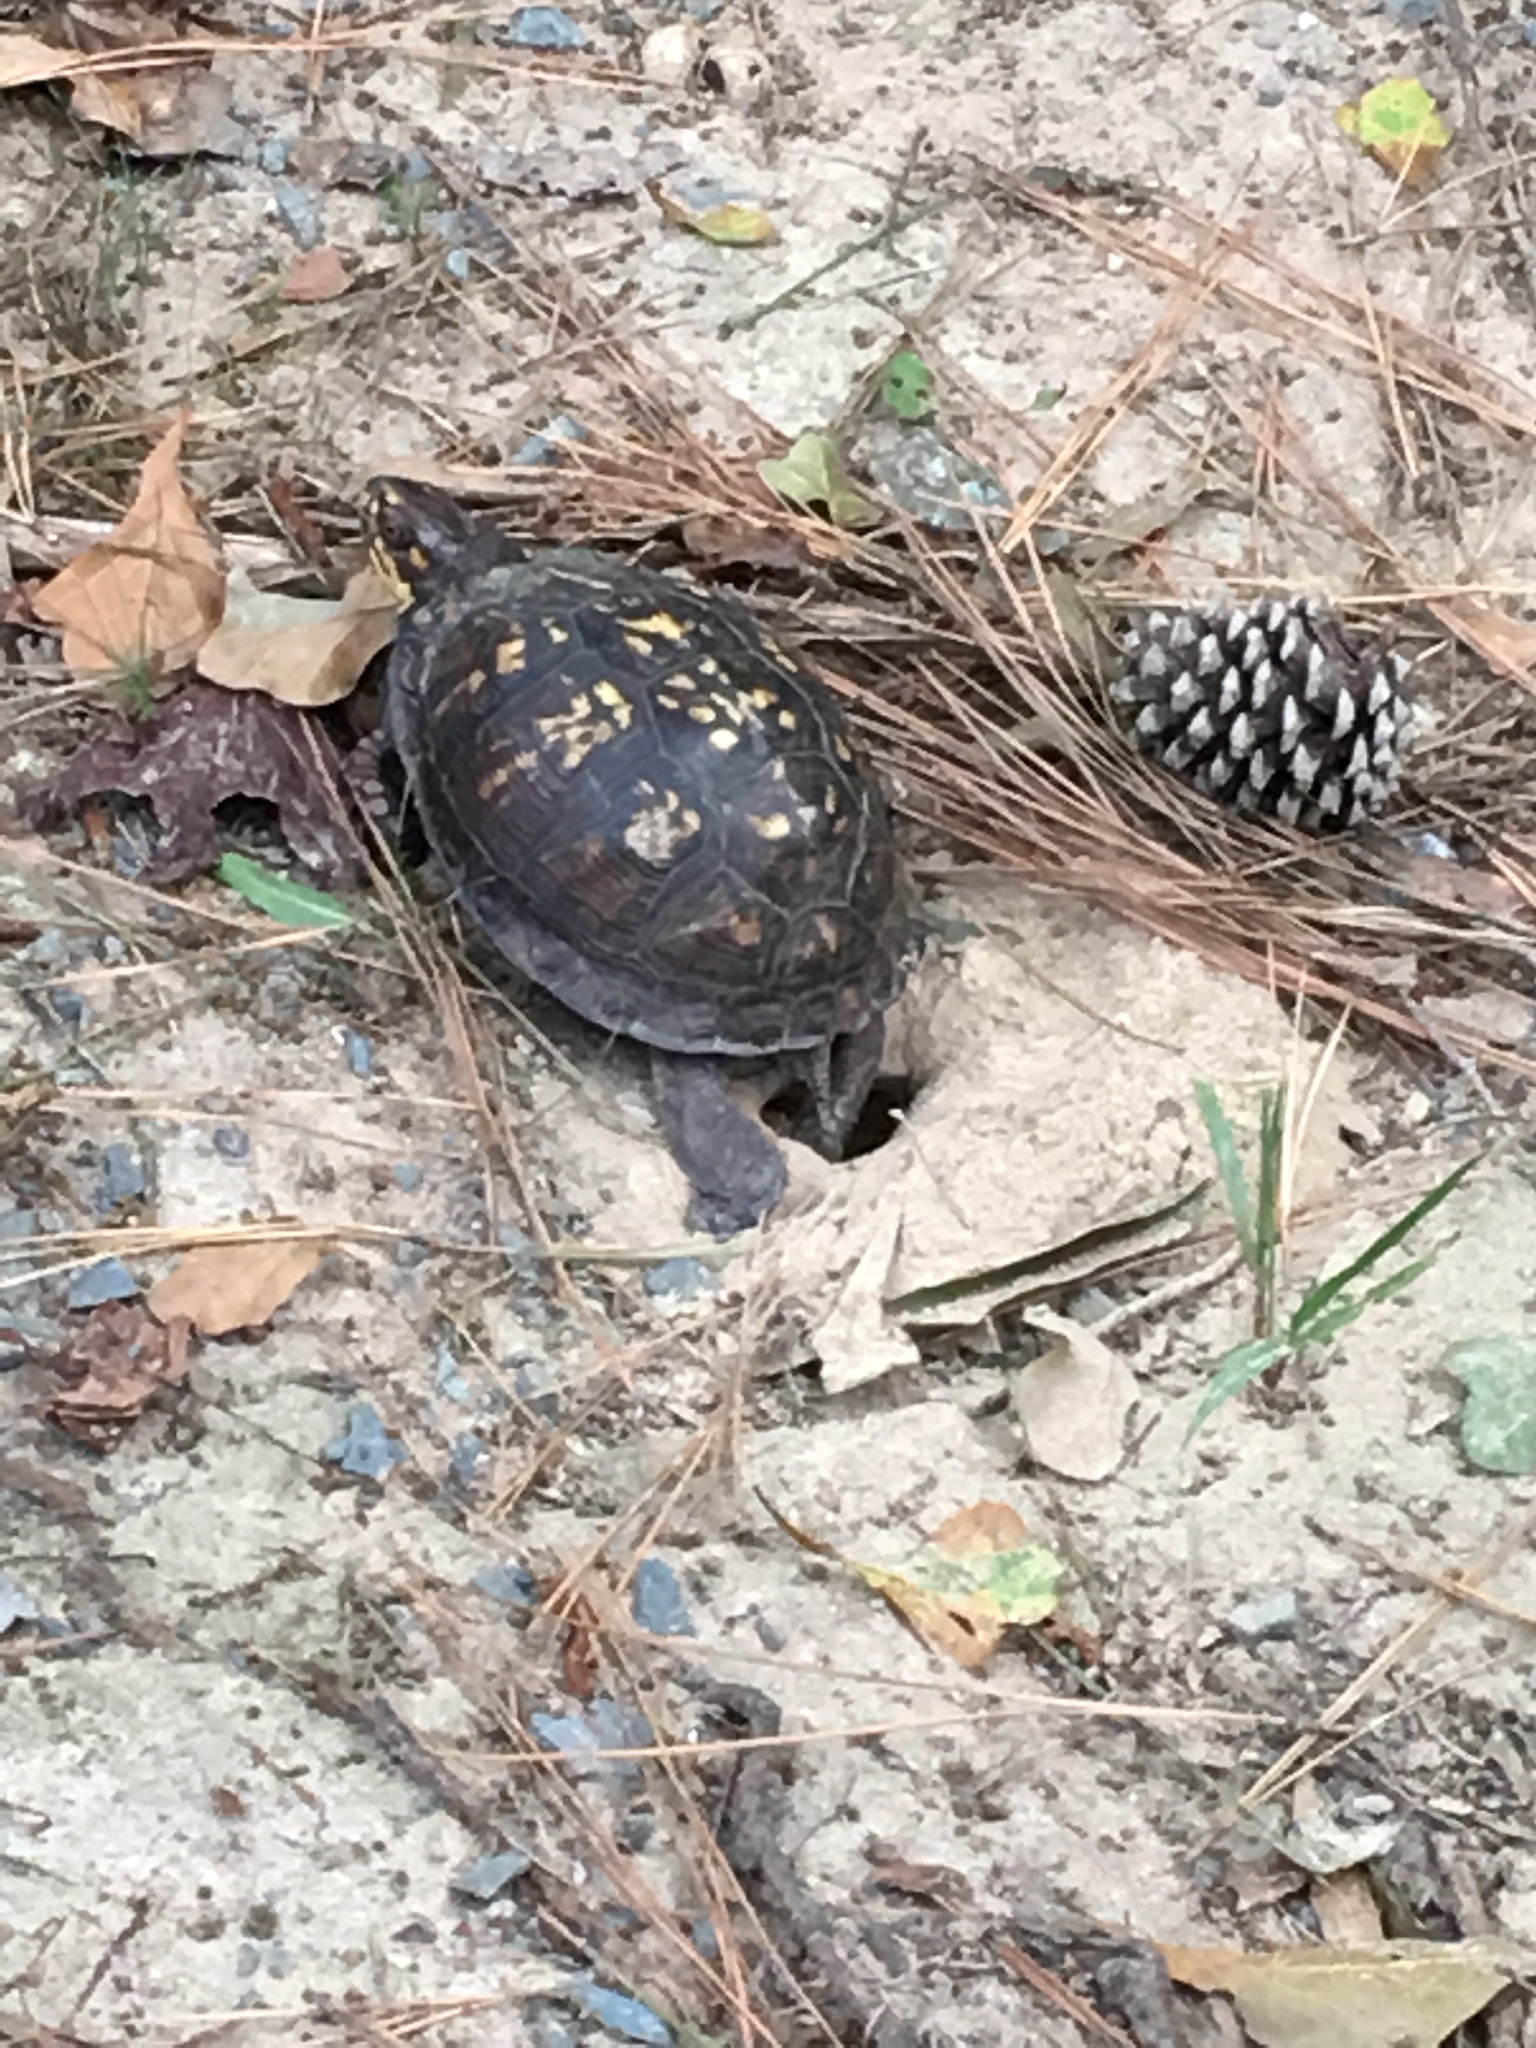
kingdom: Animalia
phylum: Chordata
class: Testudines
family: Emydidae
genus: Terrapene
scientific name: Terrapene carolina
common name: Common box turtle
